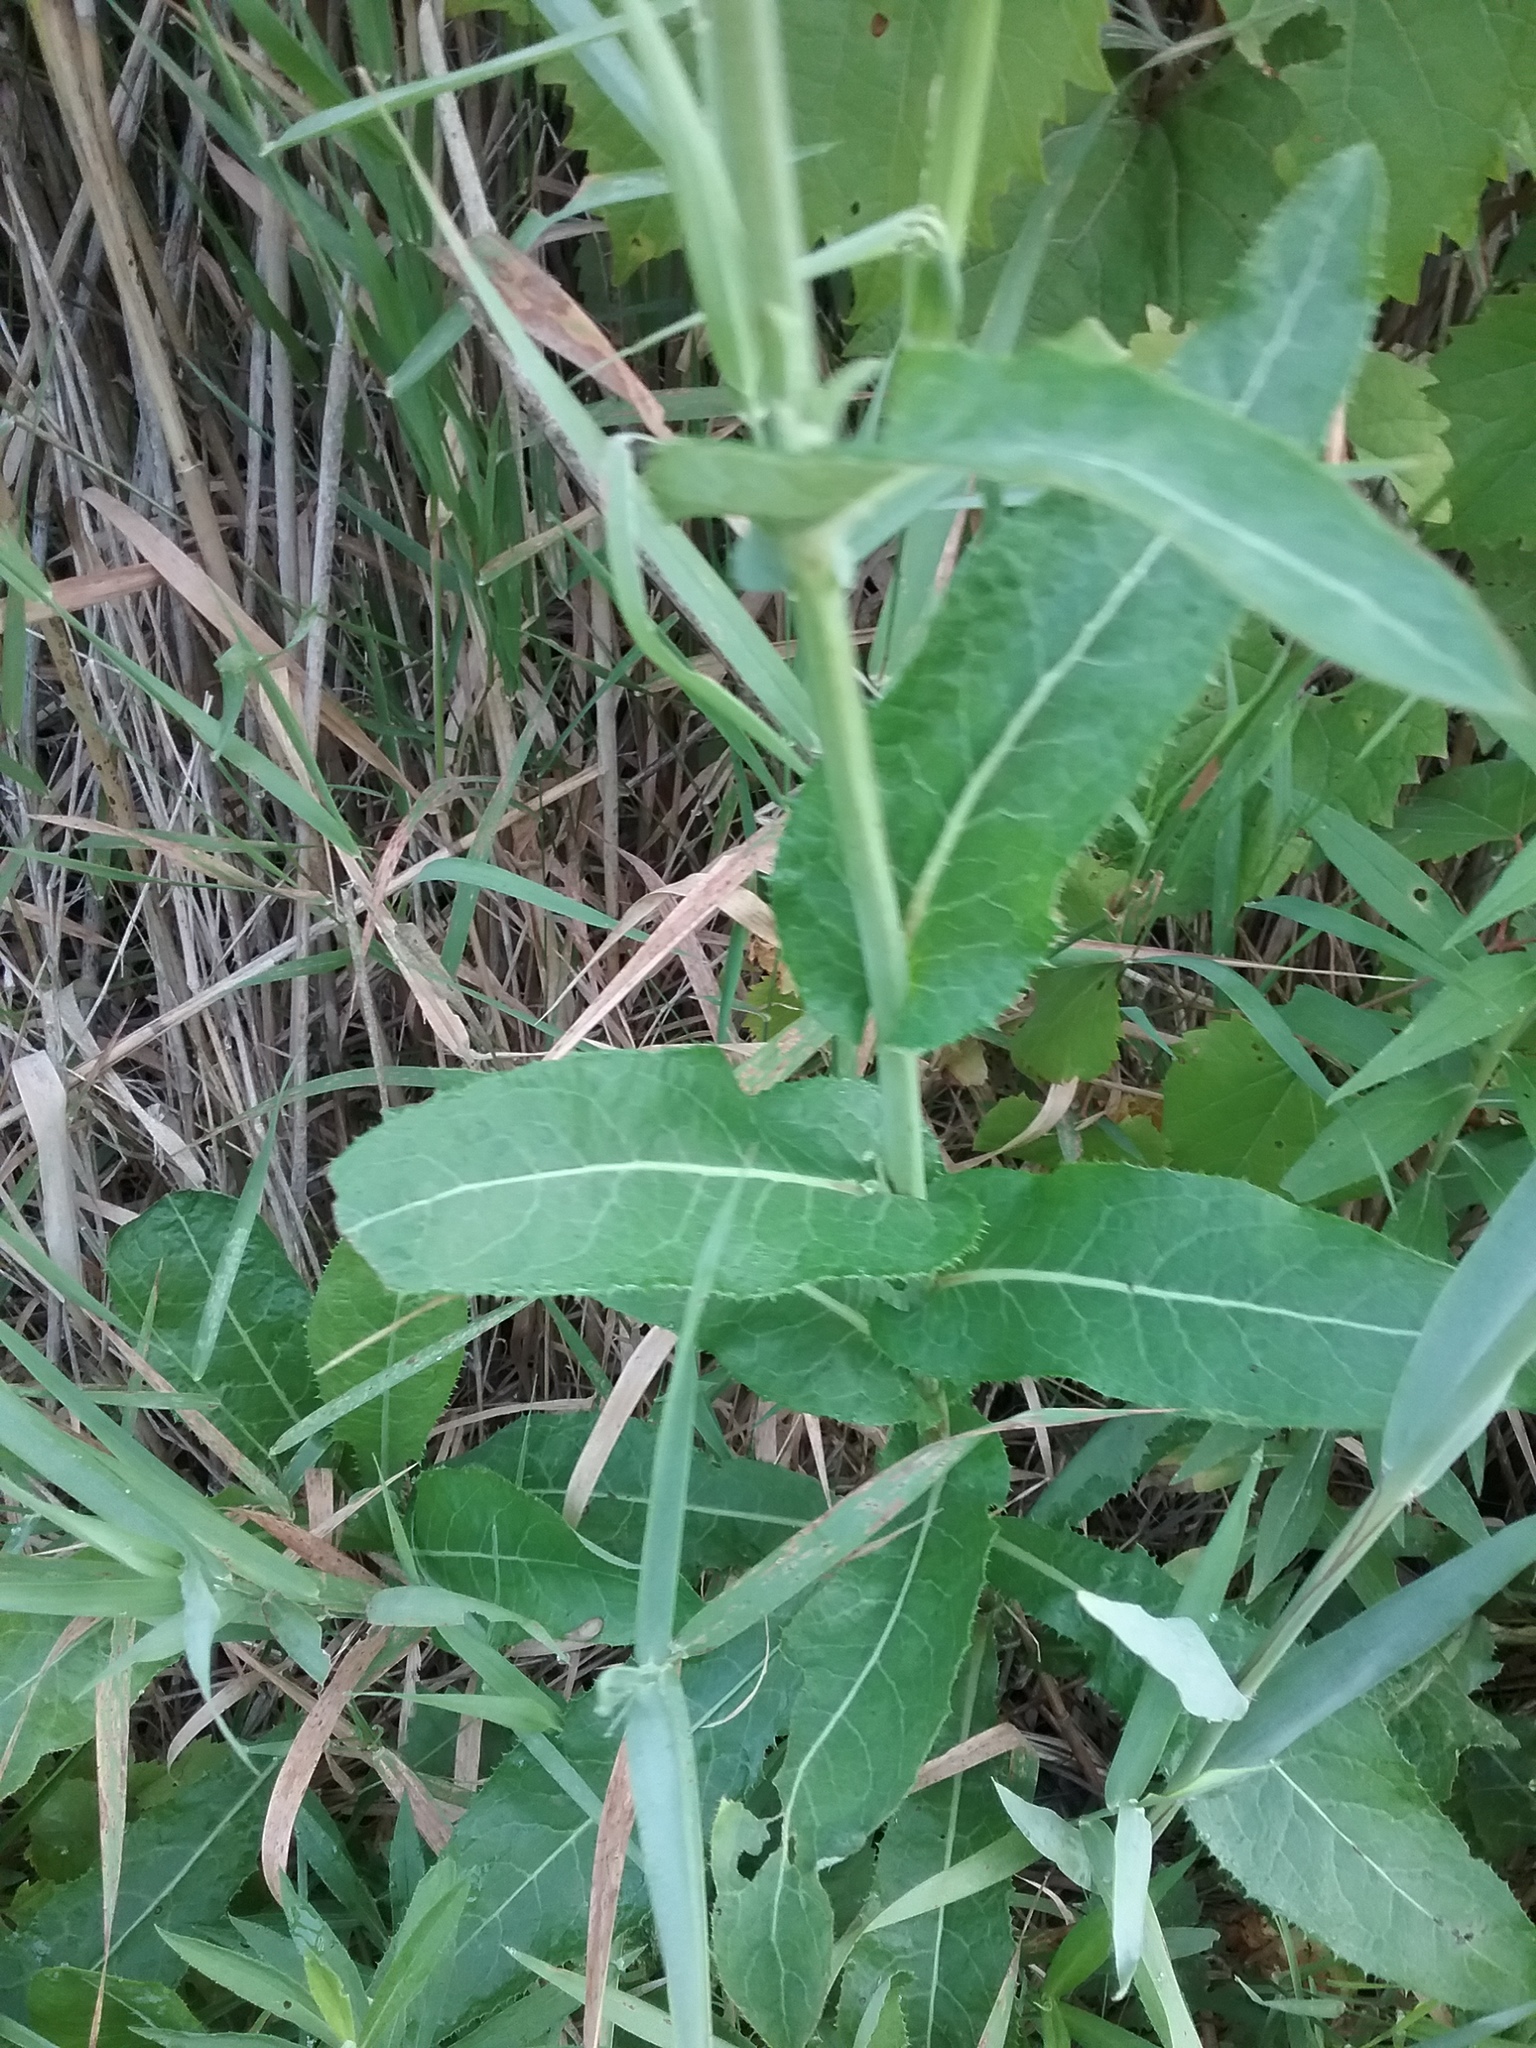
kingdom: Plantae
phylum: Tracheophyta
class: Magnoliopsida
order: Asterales
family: Asteraceae
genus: Sonchus
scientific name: Sonchus arvensis
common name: Perennial sow-thistle
